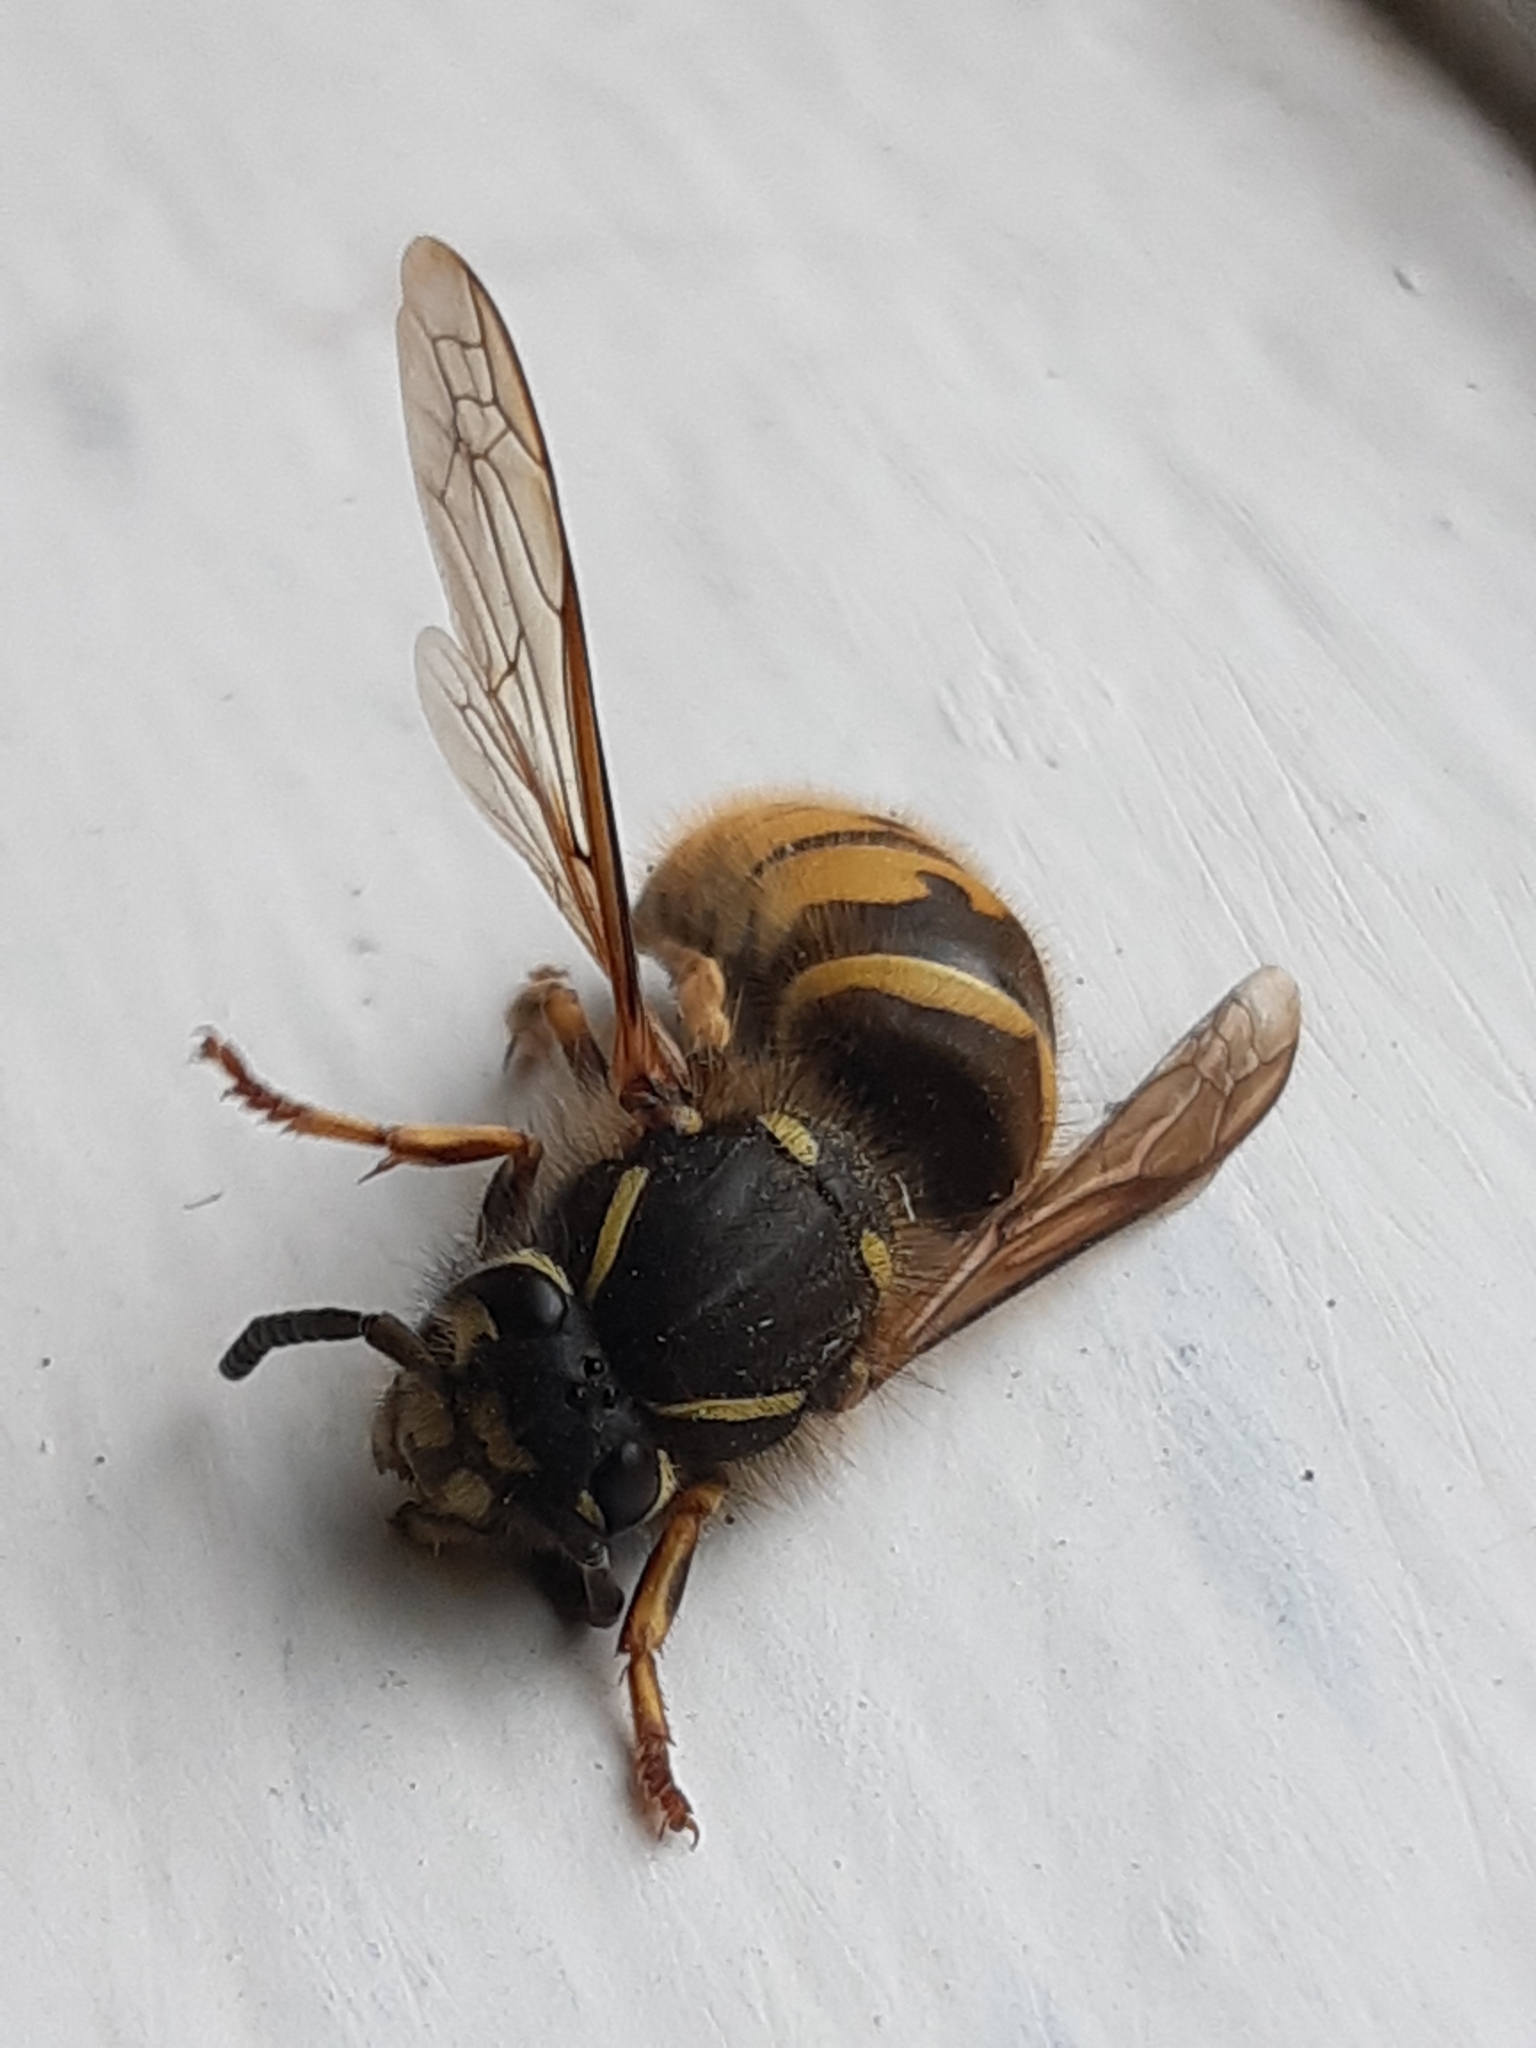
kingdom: Animalia
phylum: Arthropoda
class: Insecta
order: Hymenoptera
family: Vespidae
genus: Vespula
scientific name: Vespula vulgaris
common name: Common wasp
